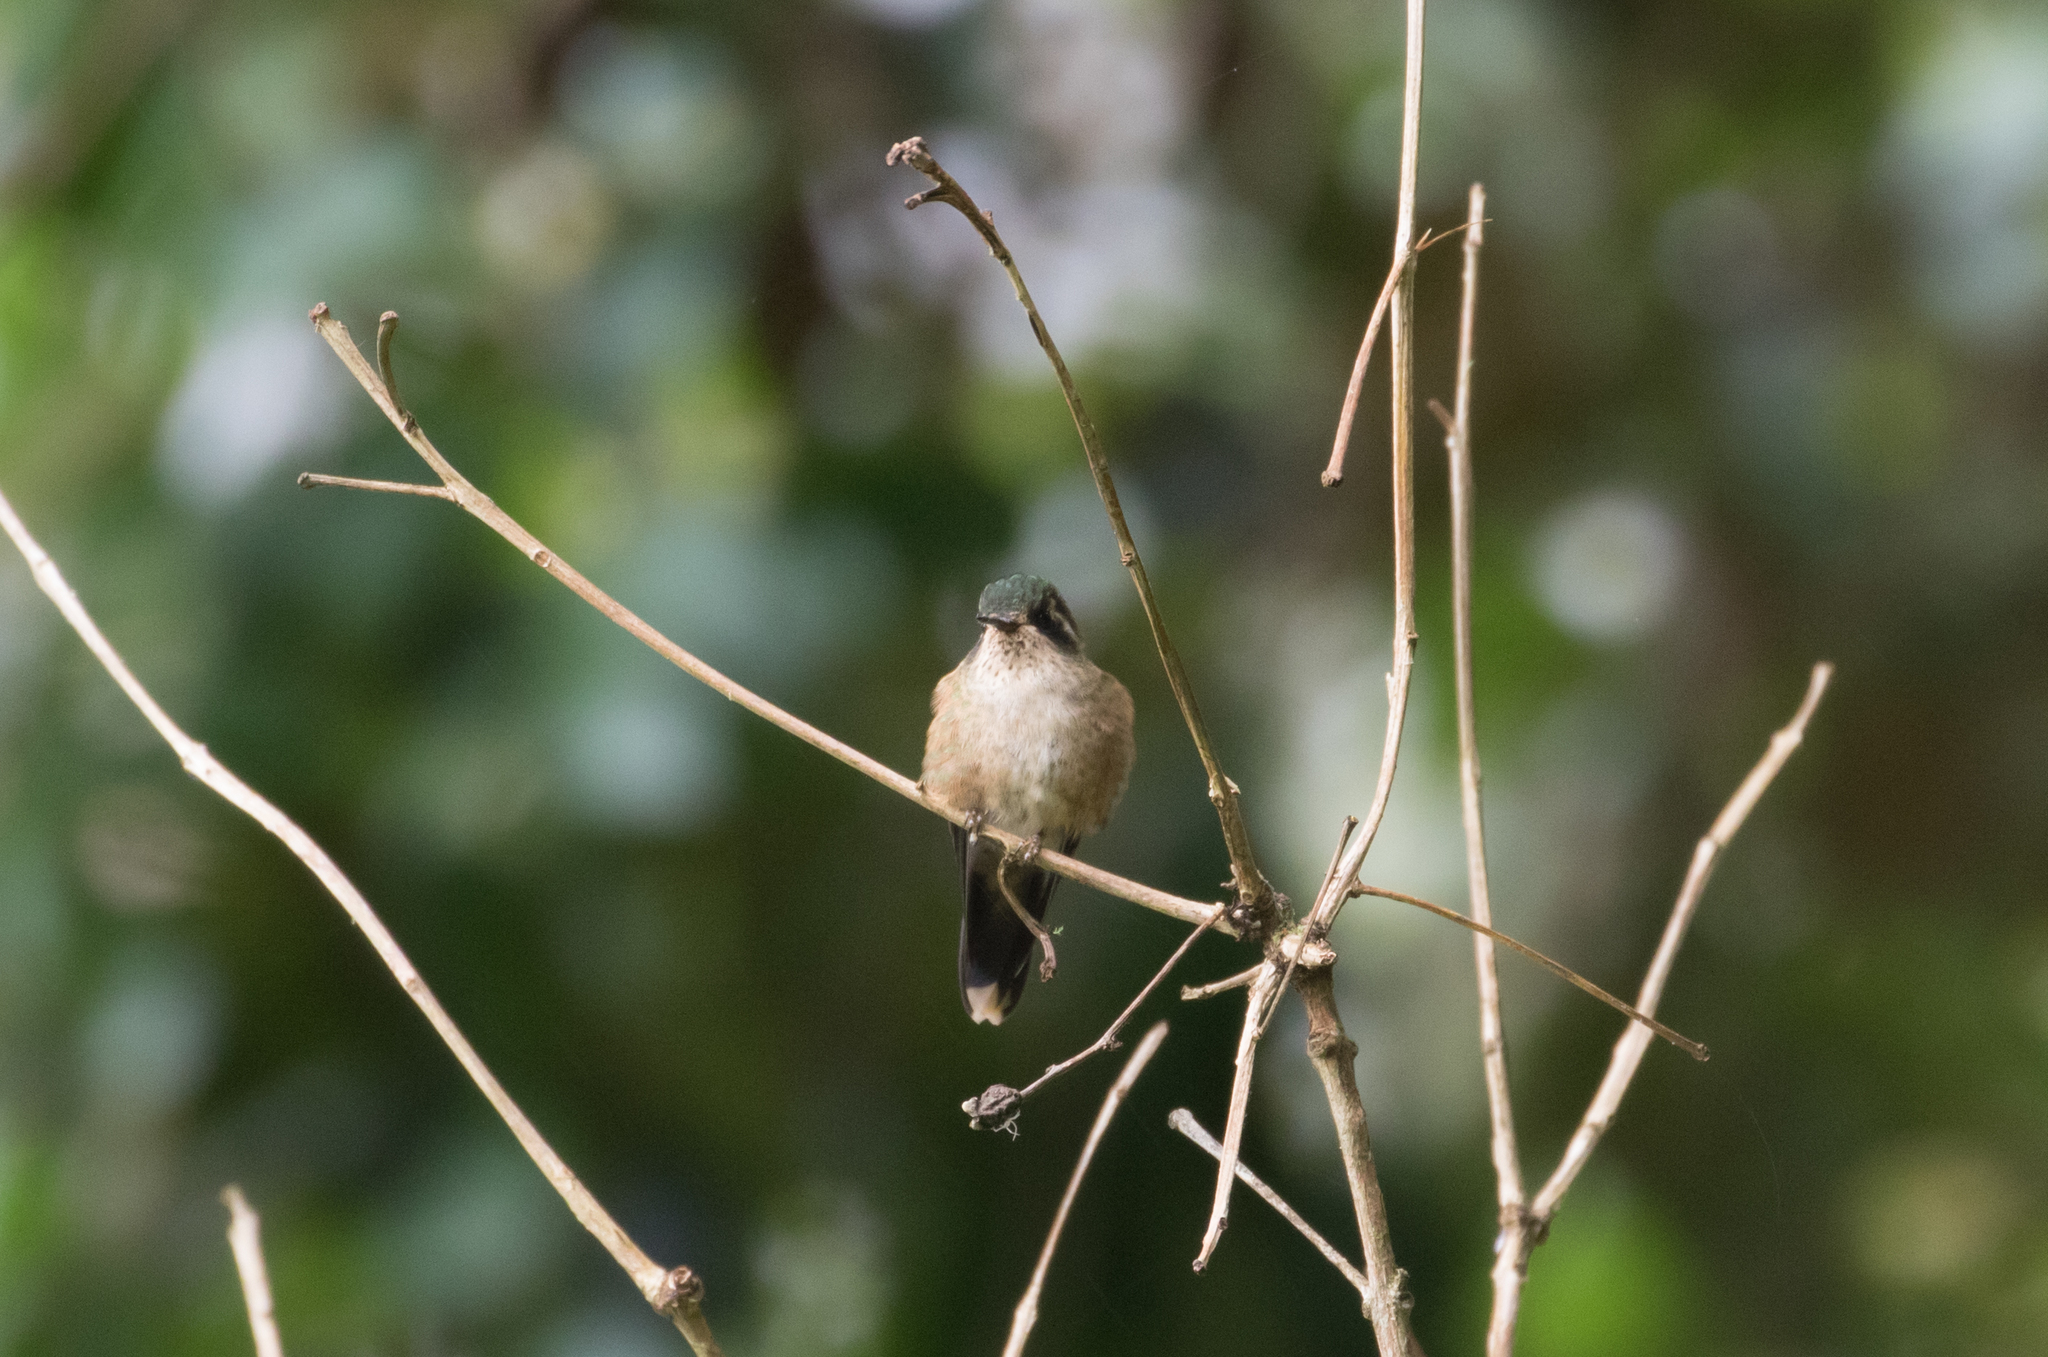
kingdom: Animalia
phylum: Chordata
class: Aves
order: Apodiformes
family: Trochilidae
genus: Adelomyia
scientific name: Adelomyia melanogenys
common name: Speckled hummingbird
